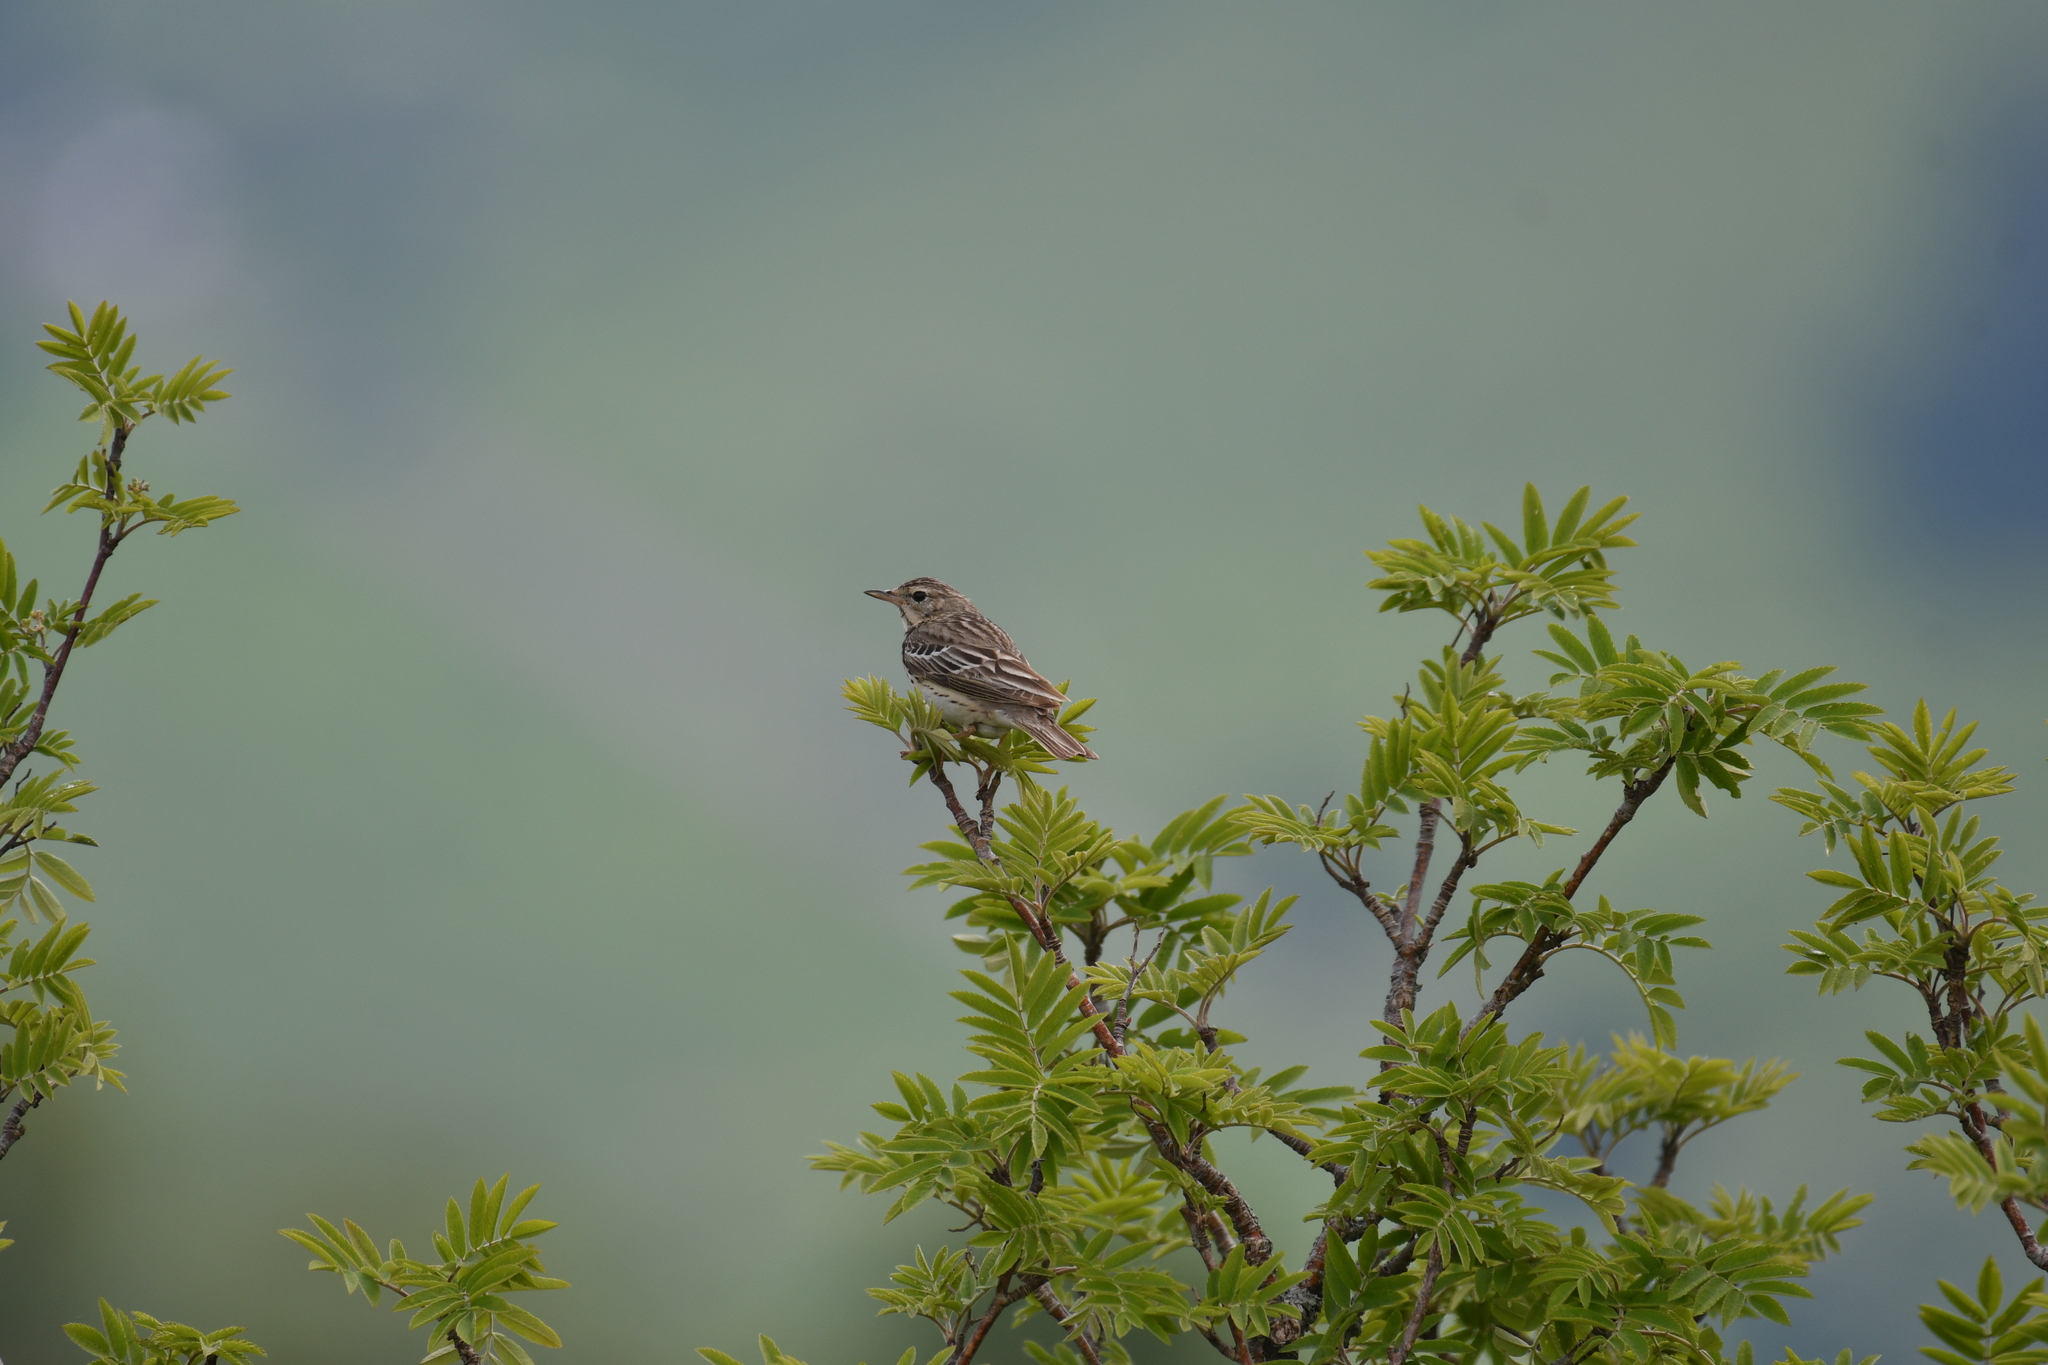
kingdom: Animalia
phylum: Chordata
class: Aves
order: Passeriformes
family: Motacillidae
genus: Anthus
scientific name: Anthus trivialis
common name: Tree pipit
